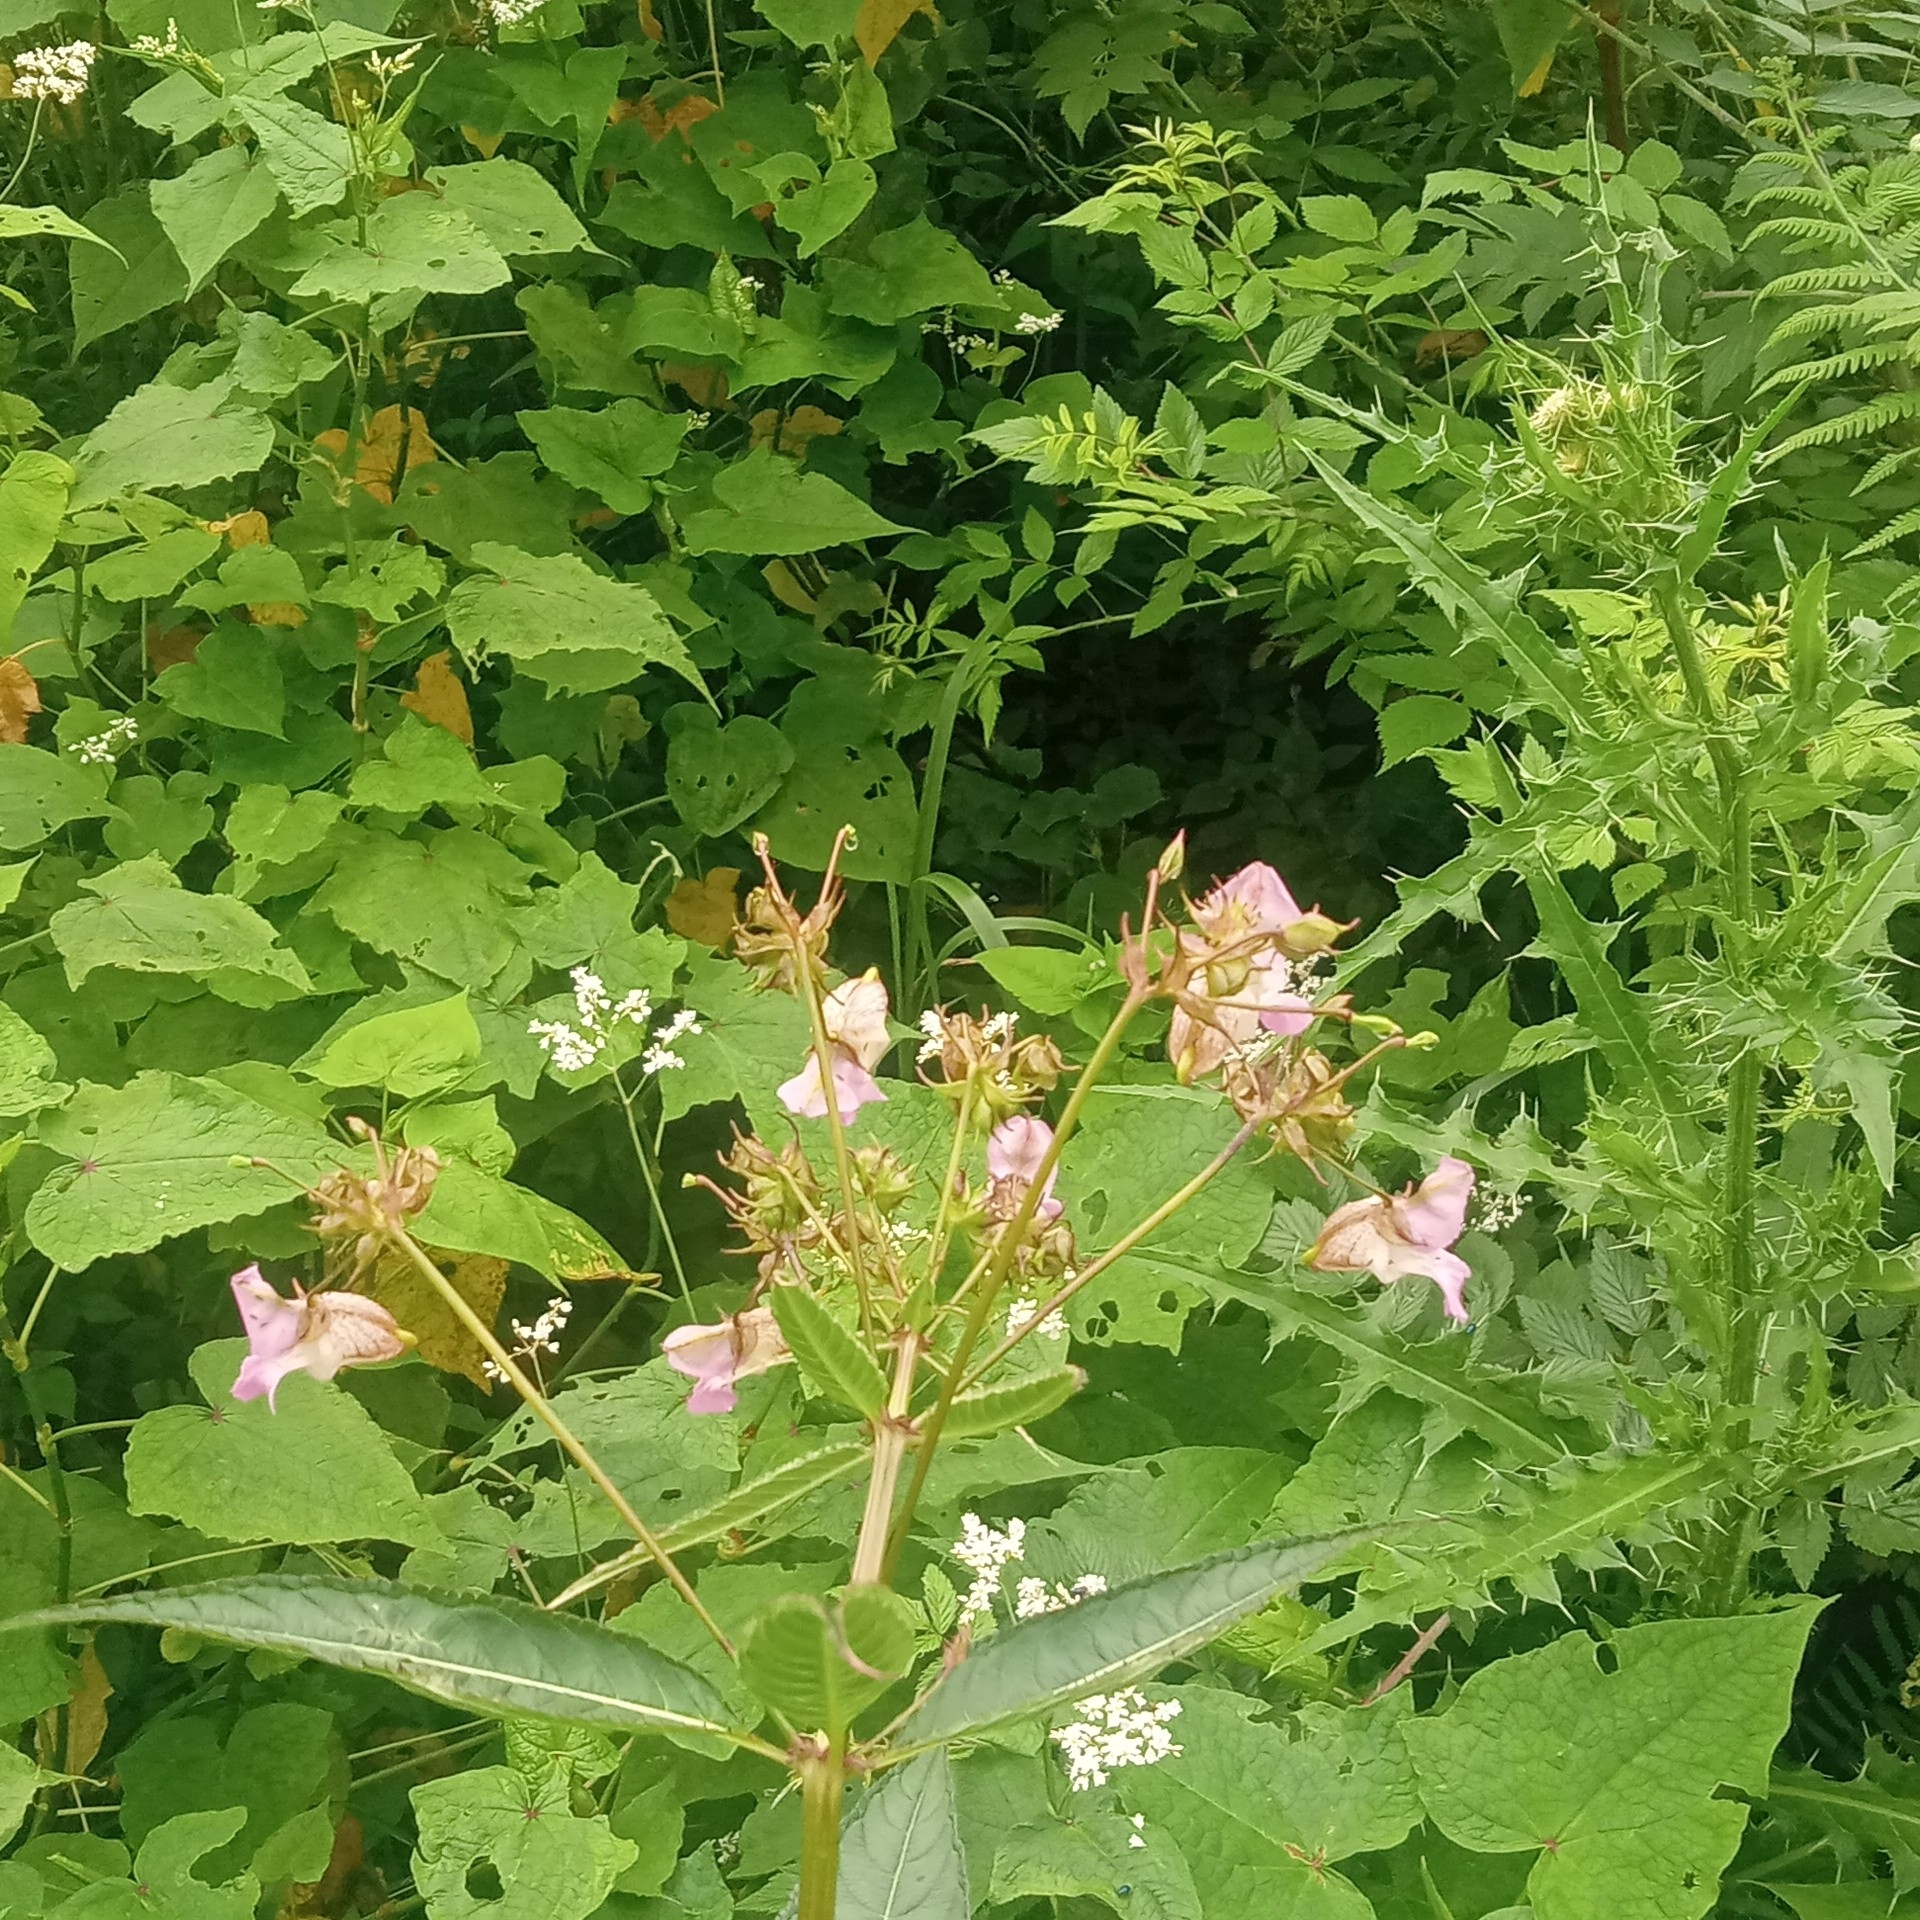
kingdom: Plantae
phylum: Tracheophyta
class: Magnoliopsida
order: Ericales
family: Balsaminaceae
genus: Impatiens
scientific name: Impatiens glandulifera
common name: Himalayan balsam
